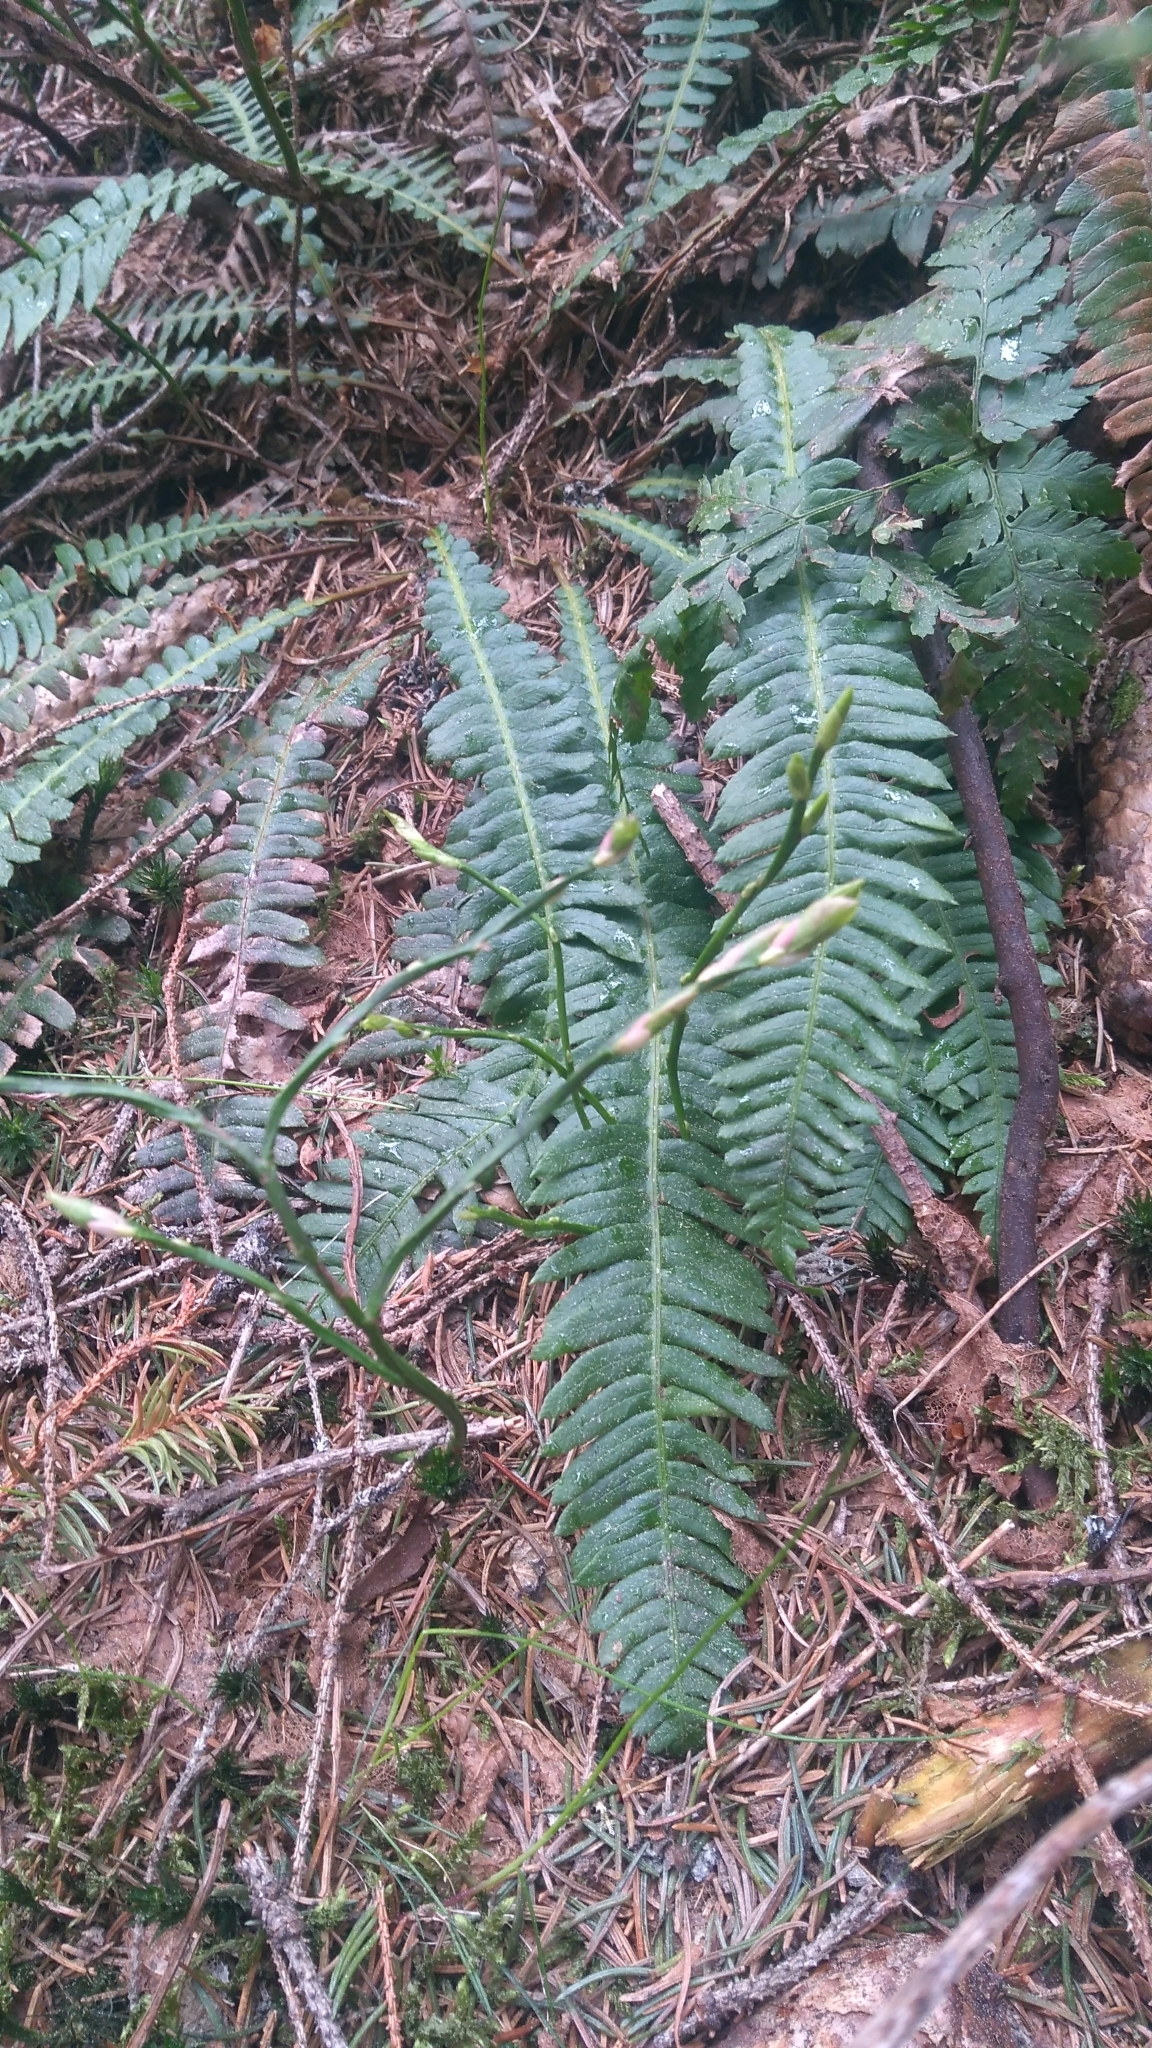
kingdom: Plantae
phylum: Tracheophyta
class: Polypodiopsida
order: Polypodiales
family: Blechnaceae
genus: Struthiopteris
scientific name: Struthiopteris spicant
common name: Deer fern
